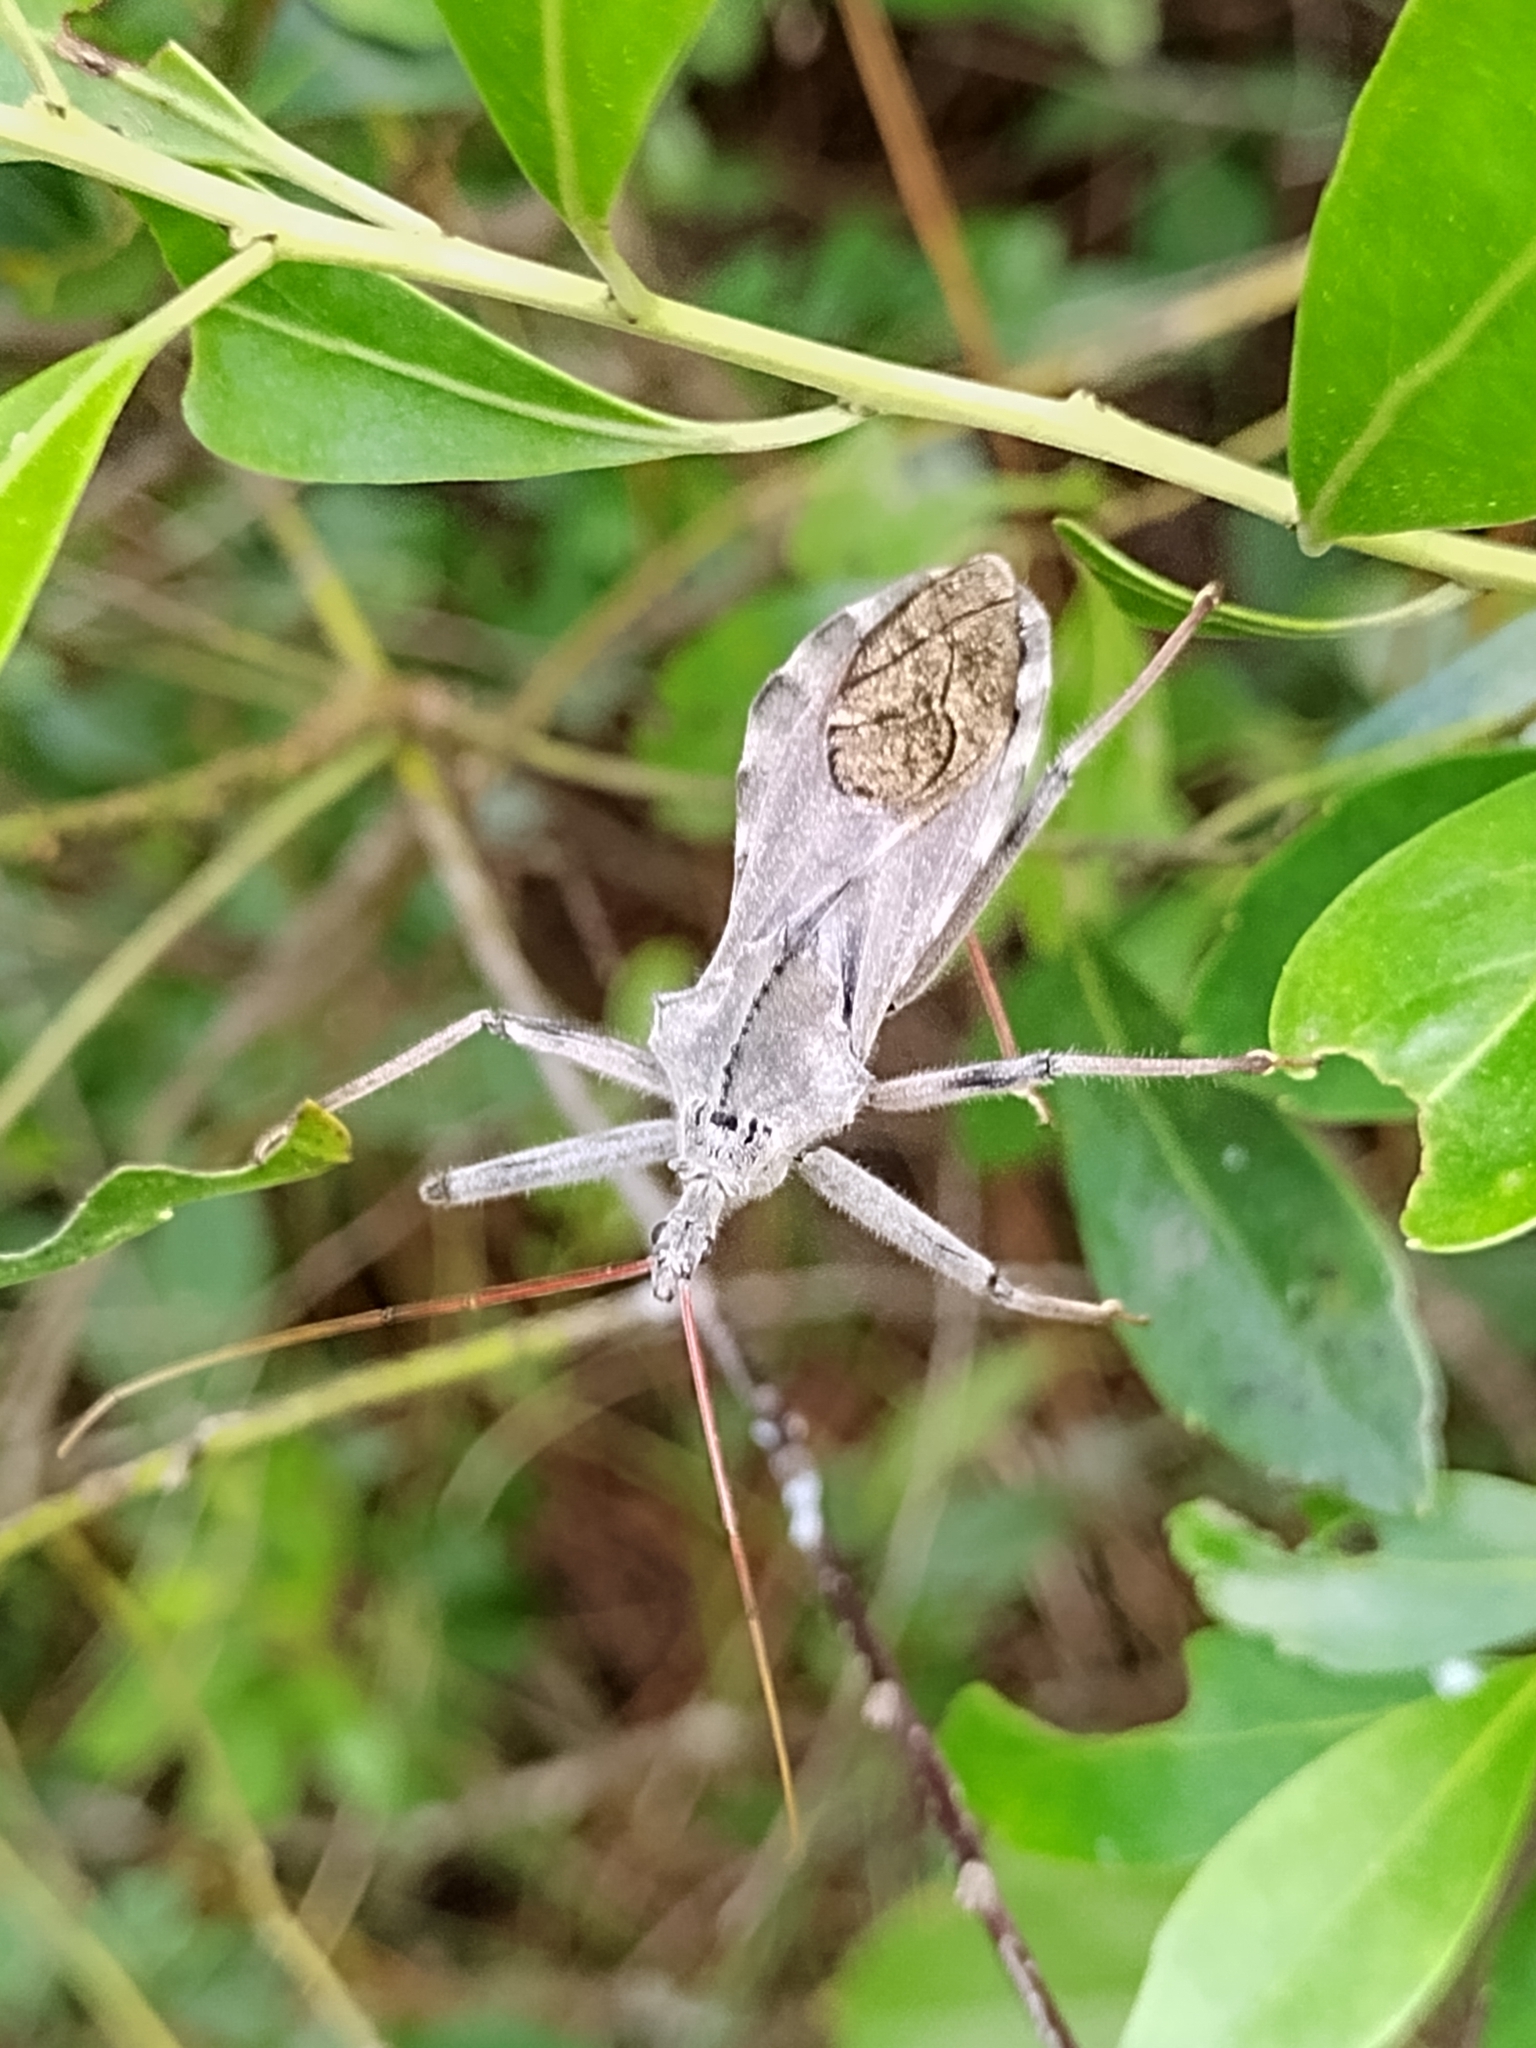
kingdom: Animalia
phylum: Arthropoda
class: Insecta
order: Hemiptera
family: Reduviidae
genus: Arilus
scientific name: Arilus cristatus
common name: North american wheel bug
